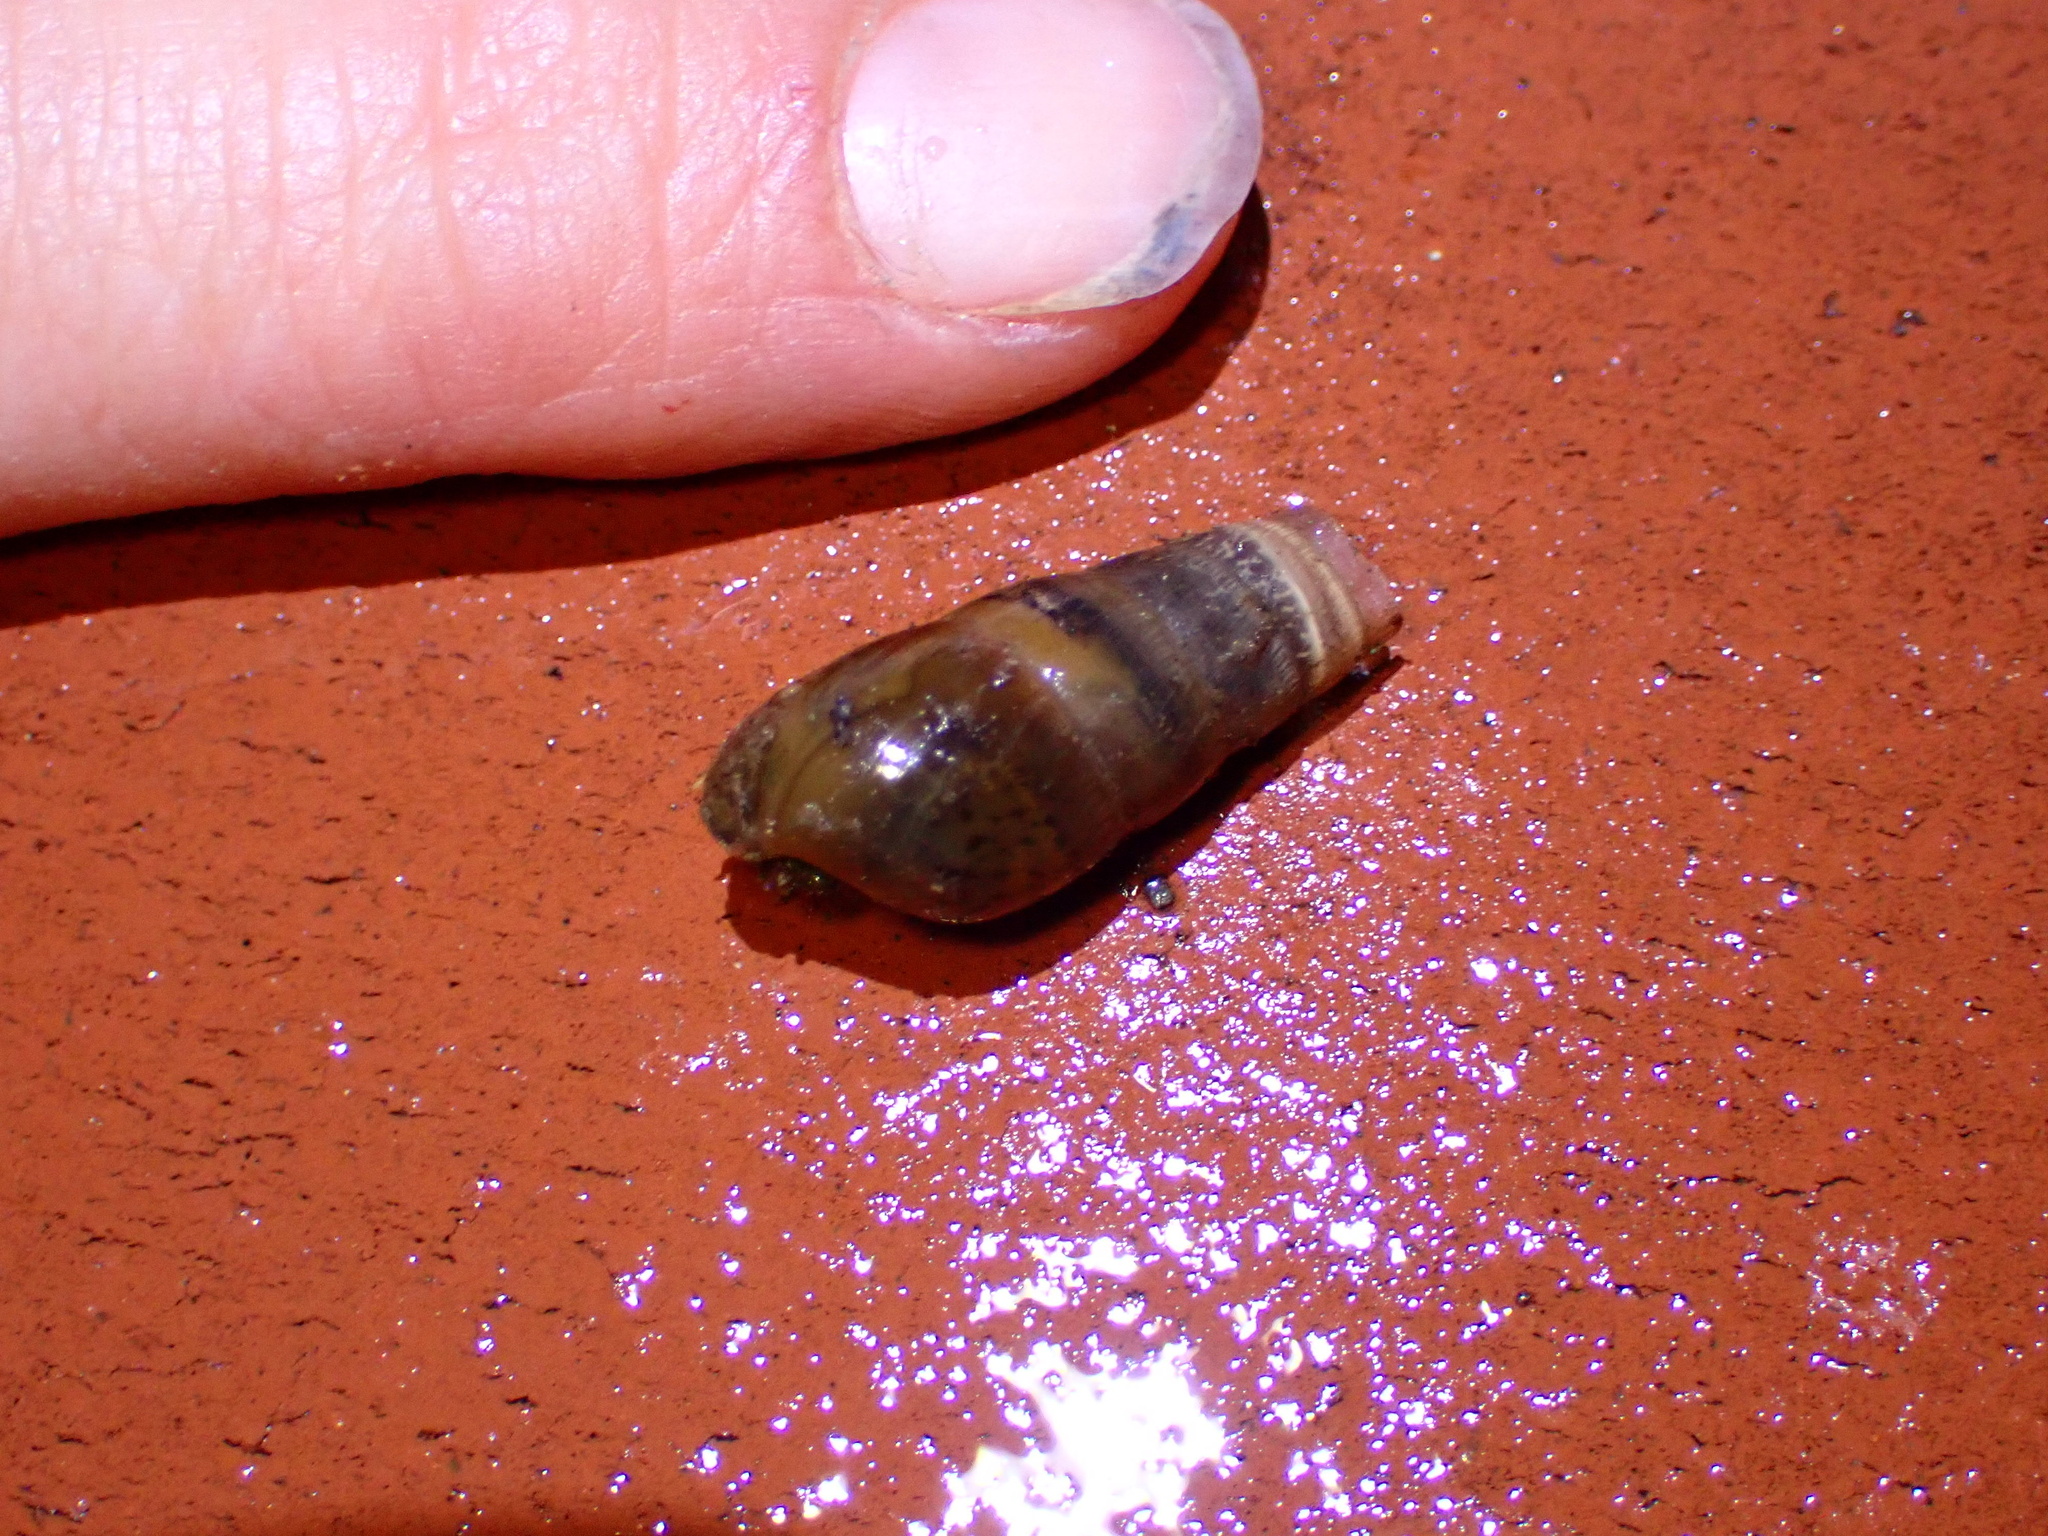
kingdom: Animalia
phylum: Mollusca
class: Gastropoda
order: Stylommatophora
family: Achatinidae
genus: Rumina
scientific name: Rumina decollata
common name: Decollate snail
